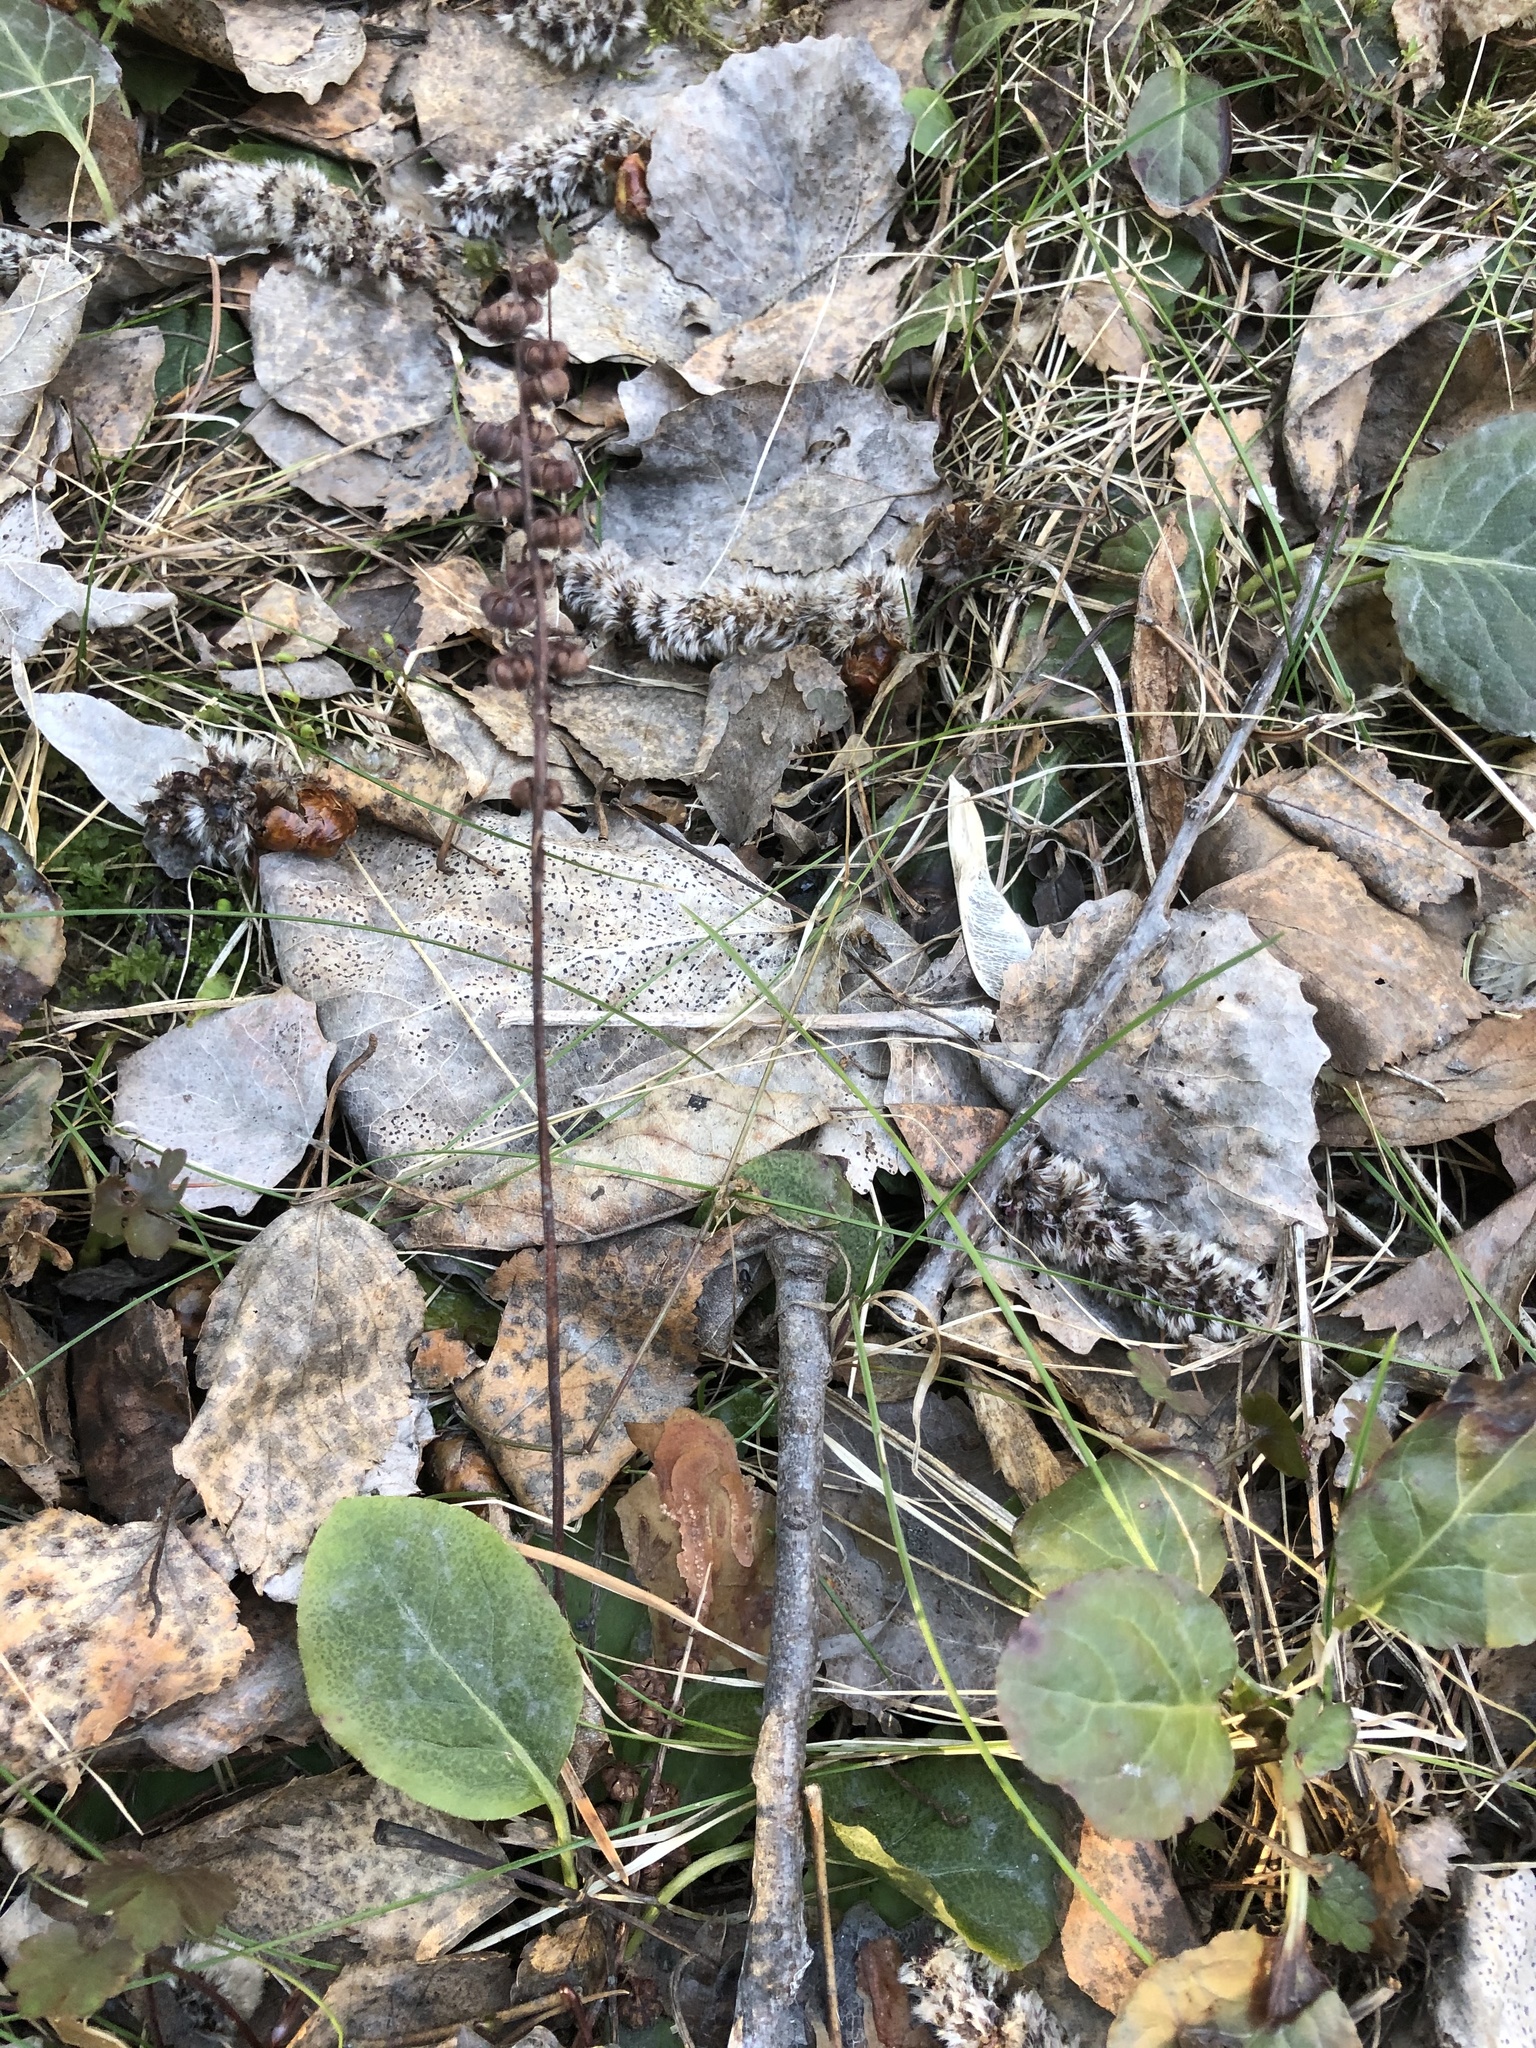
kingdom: Plantae
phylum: Tracheophyta
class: Magnoliopsida
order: Ericales
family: Ericaceae
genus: Pyrola
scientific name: Pyrola minor
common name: Common wintergreen
